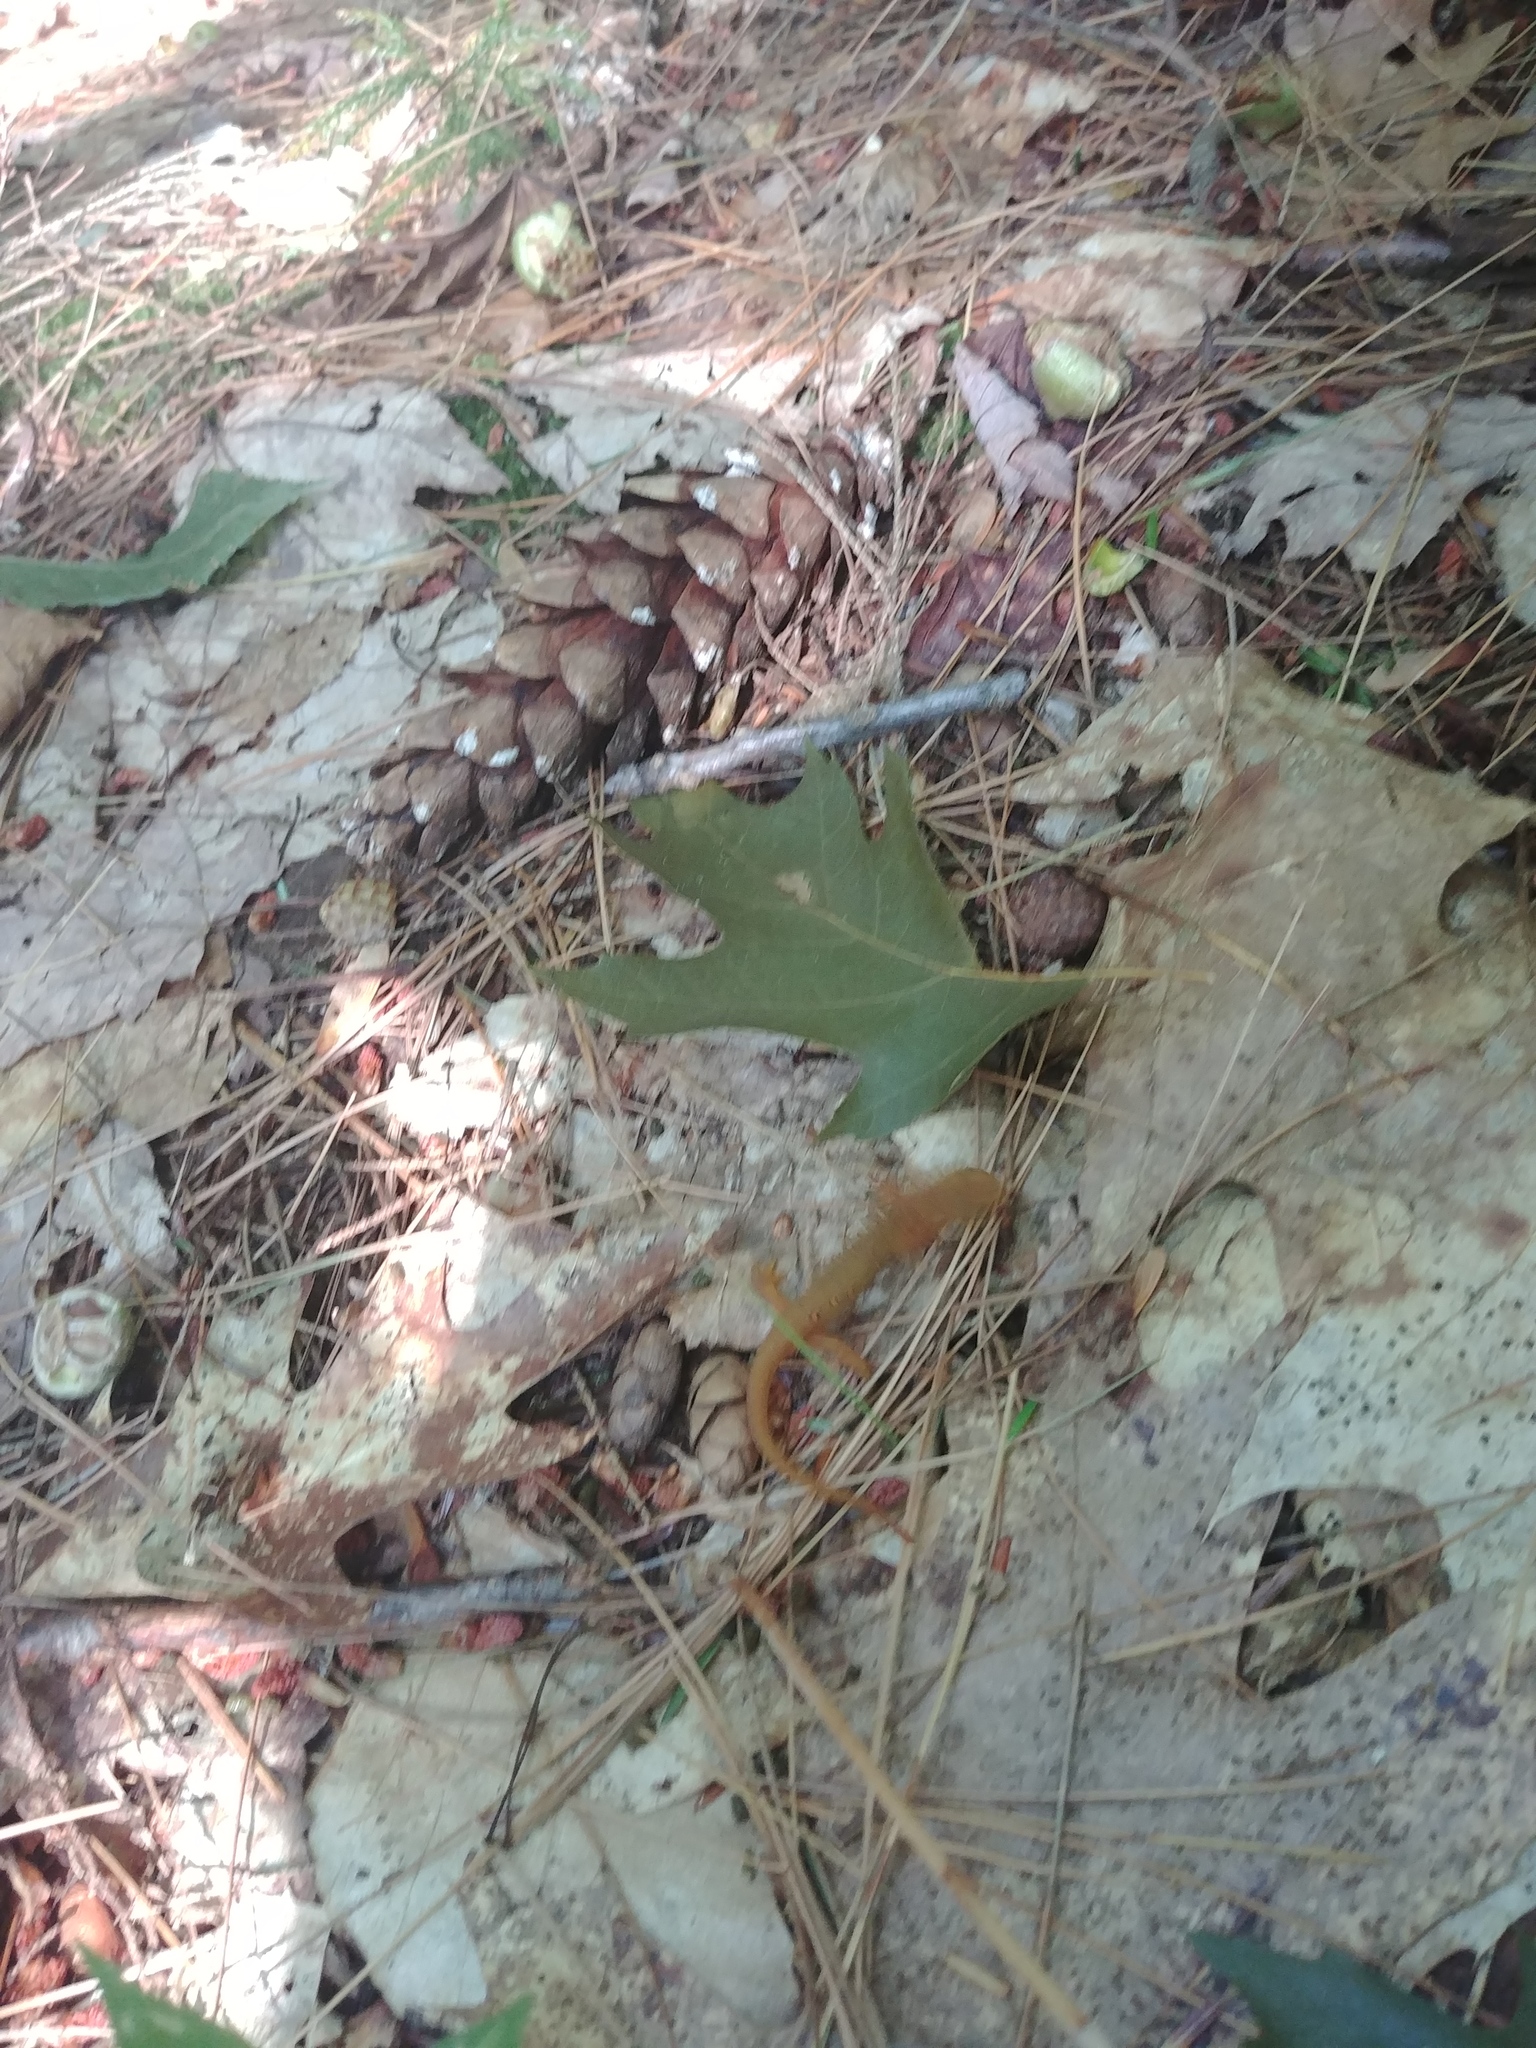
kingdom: Animalia
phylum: Chordata
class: Amphibia
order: Caudata
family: Salamandridae
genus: Notophthalmus
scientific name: Notophthalmus viridescens
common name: Eastern newt
